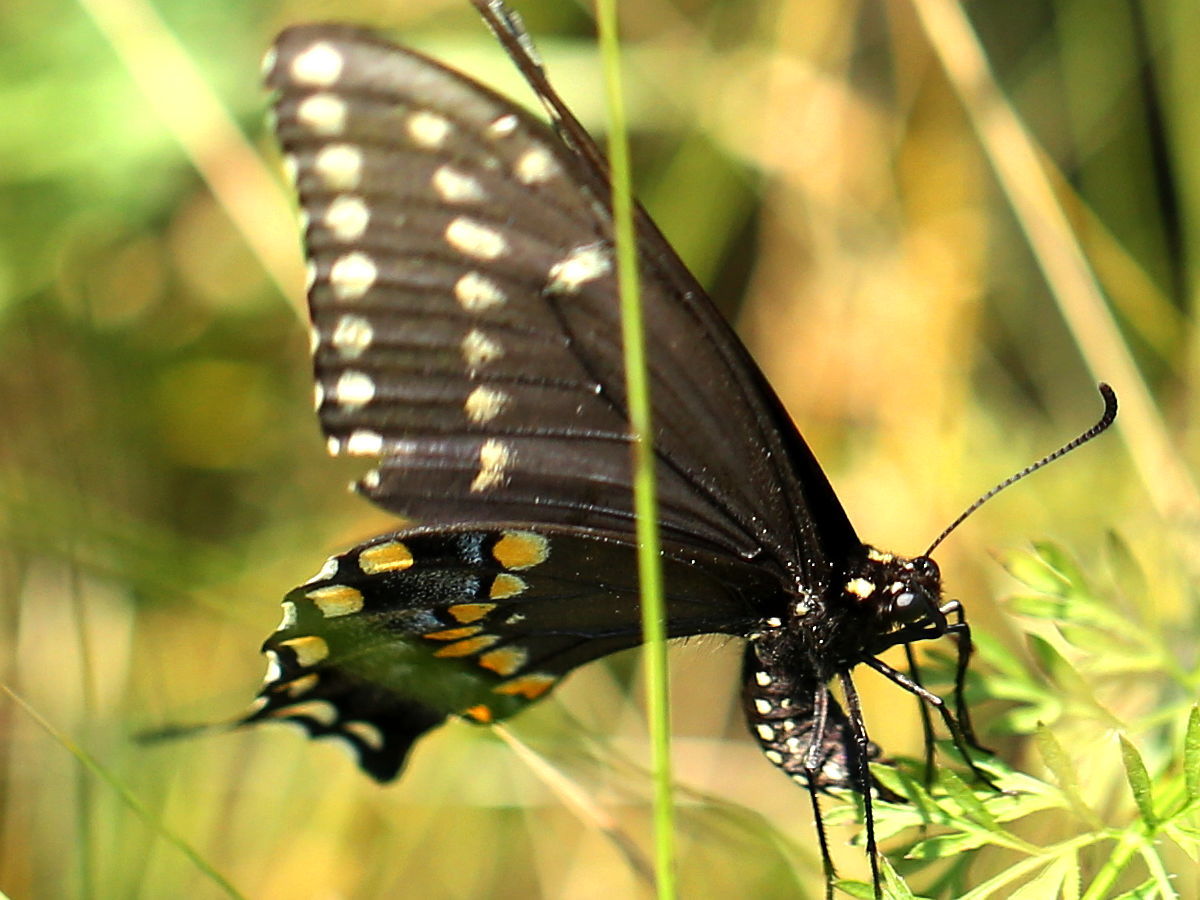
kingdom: Animalia
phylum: Arthropoda
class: Insecta
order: Lepidoptera
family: Papilionidae
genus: Papilio
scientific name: Papilio polyxenes
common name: Black swallowtail
